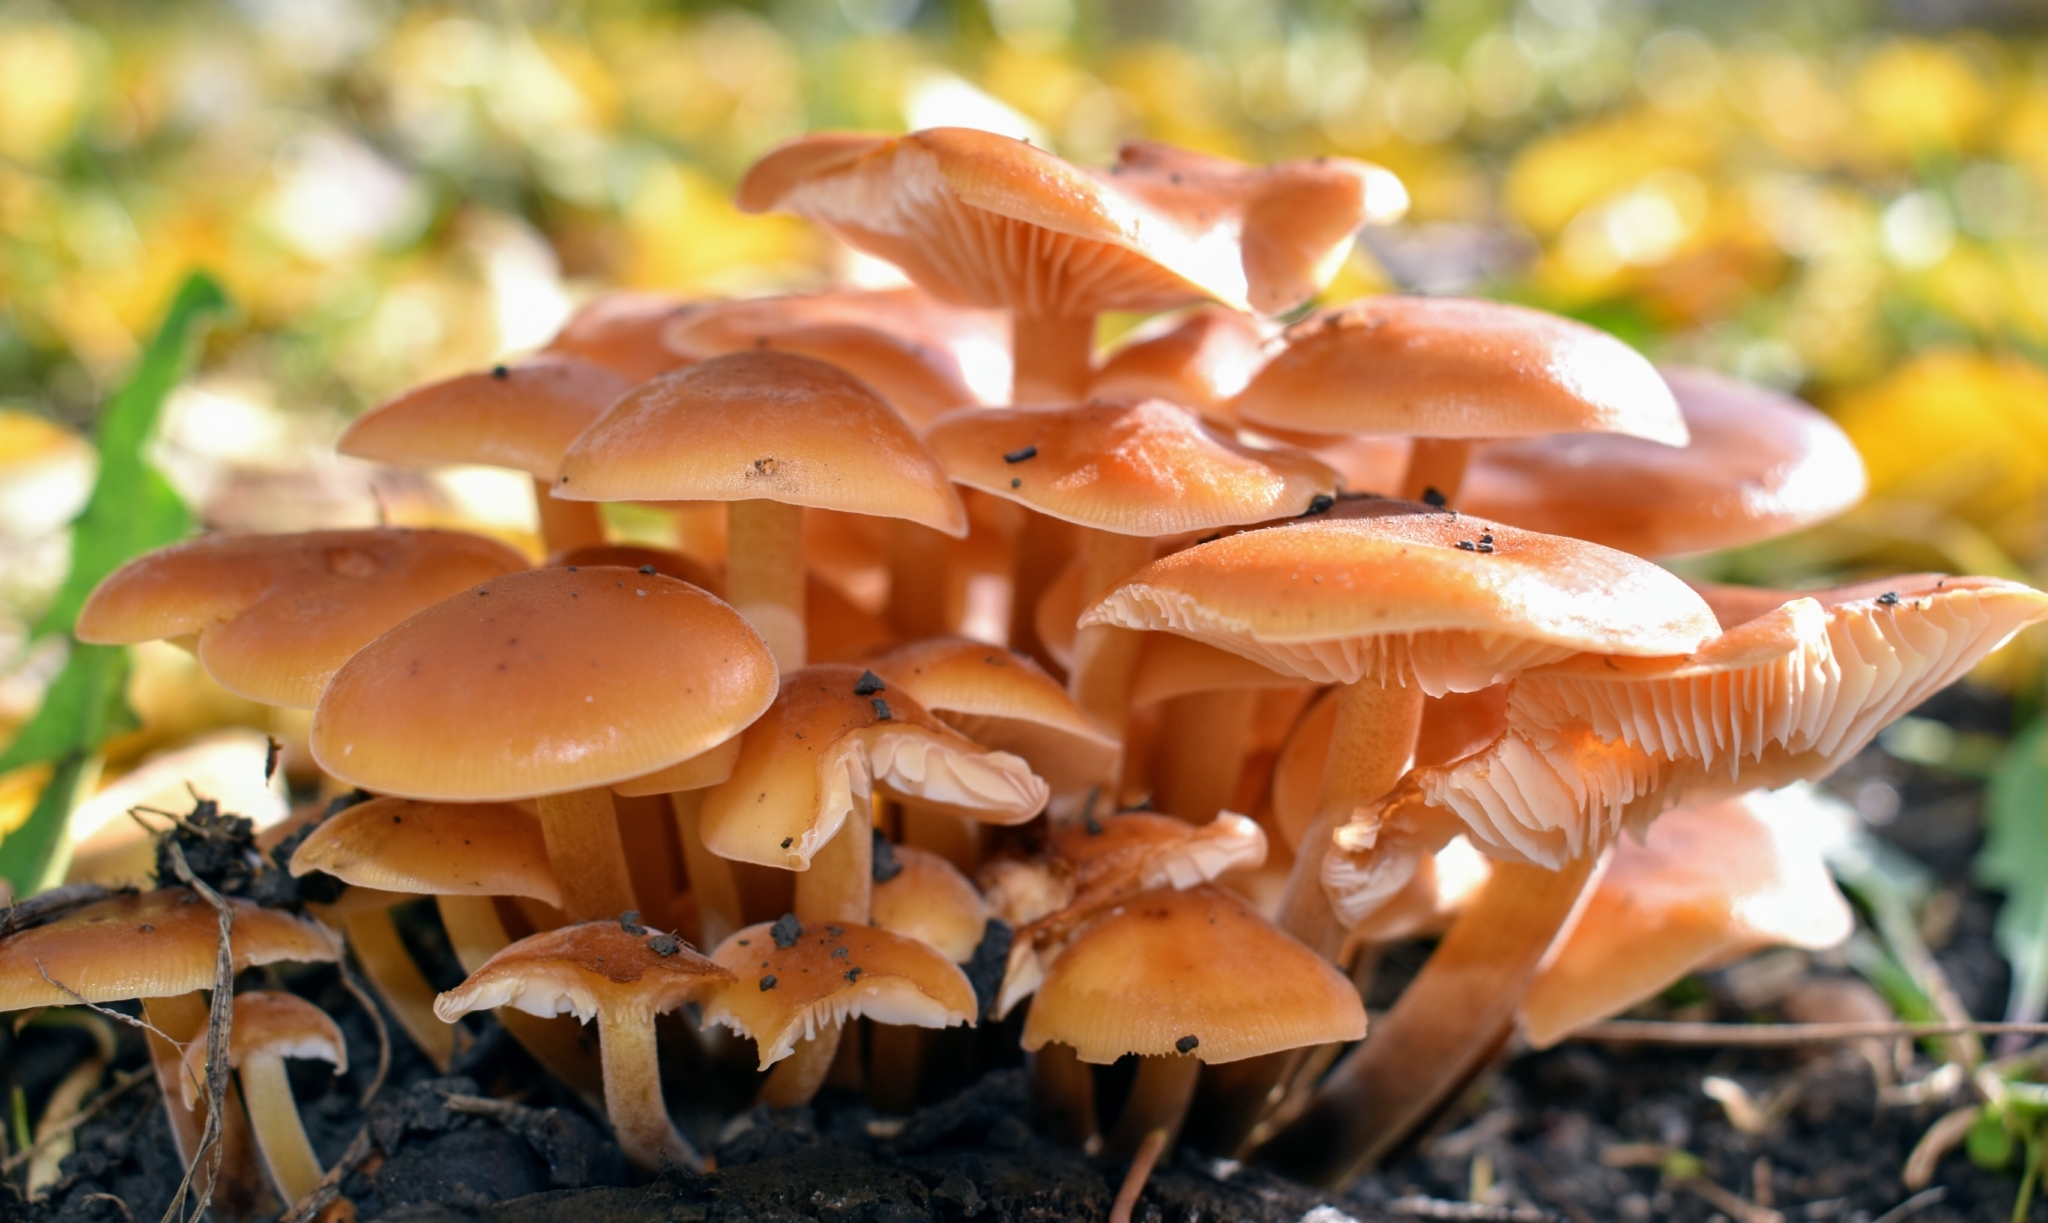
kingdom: Fungi
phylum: Basidiomycota
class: Agaricomycetes
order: Agaricales
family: Physalacriaceae
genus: Flammulina
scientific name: Flammulina
